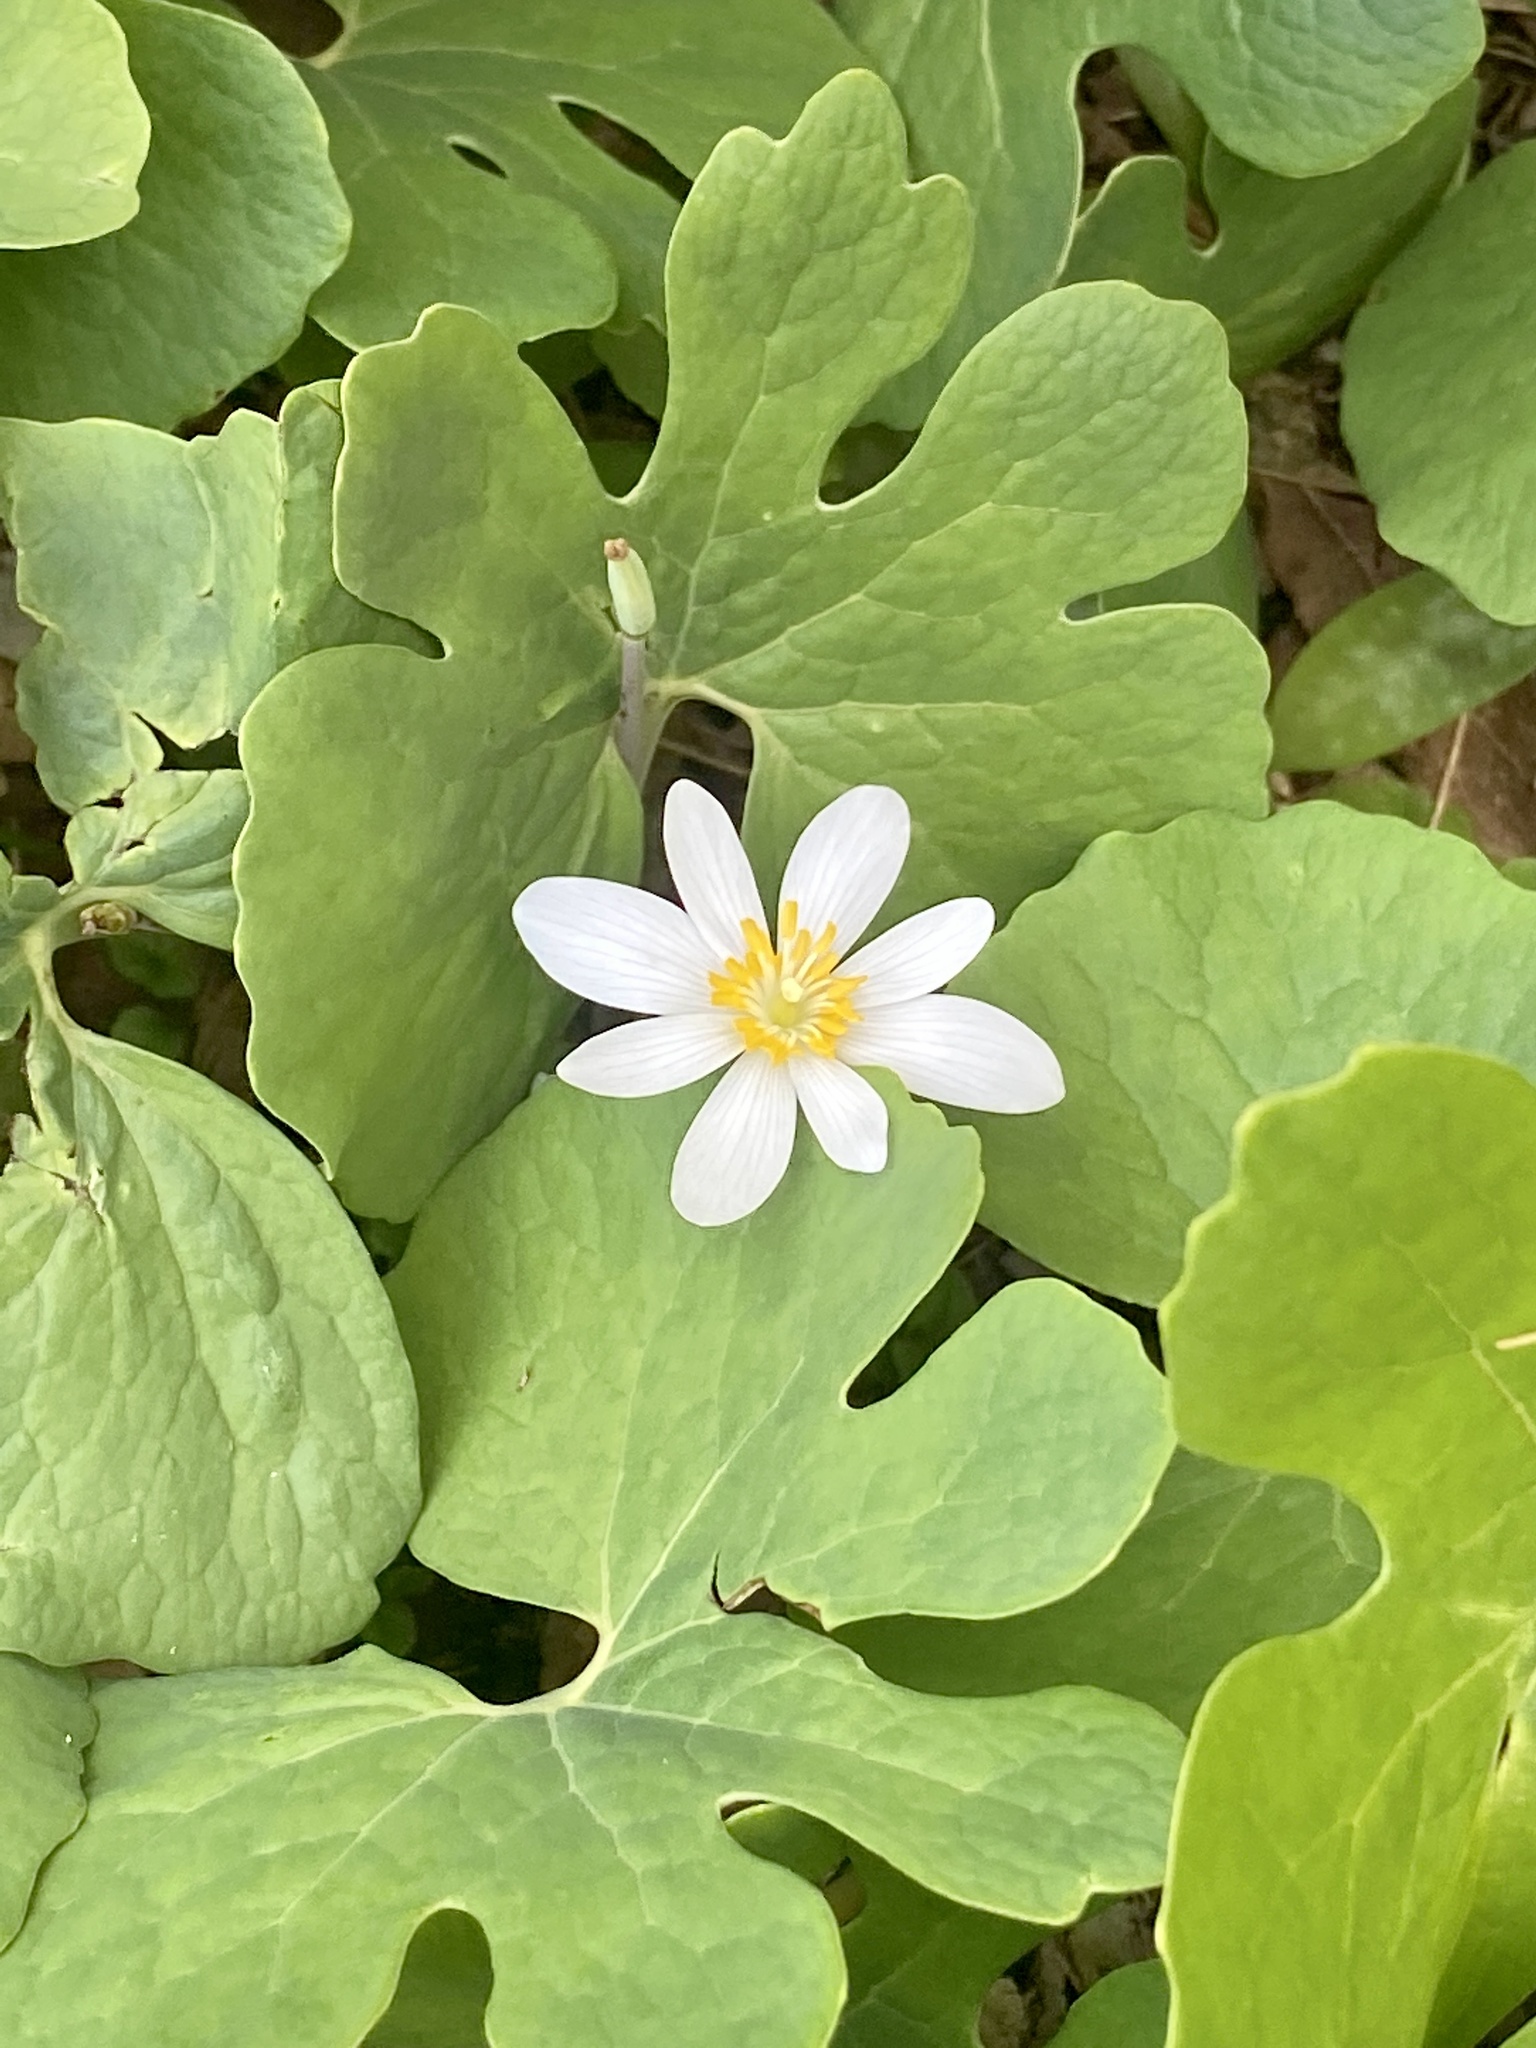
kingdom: Plantae
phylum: Tracheophyta
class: Magnoliopsida
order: Ranunculales
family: Papaveraceae
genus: Sanguinaria
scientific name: Sanguinaria canadensis
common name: Bloodroot
